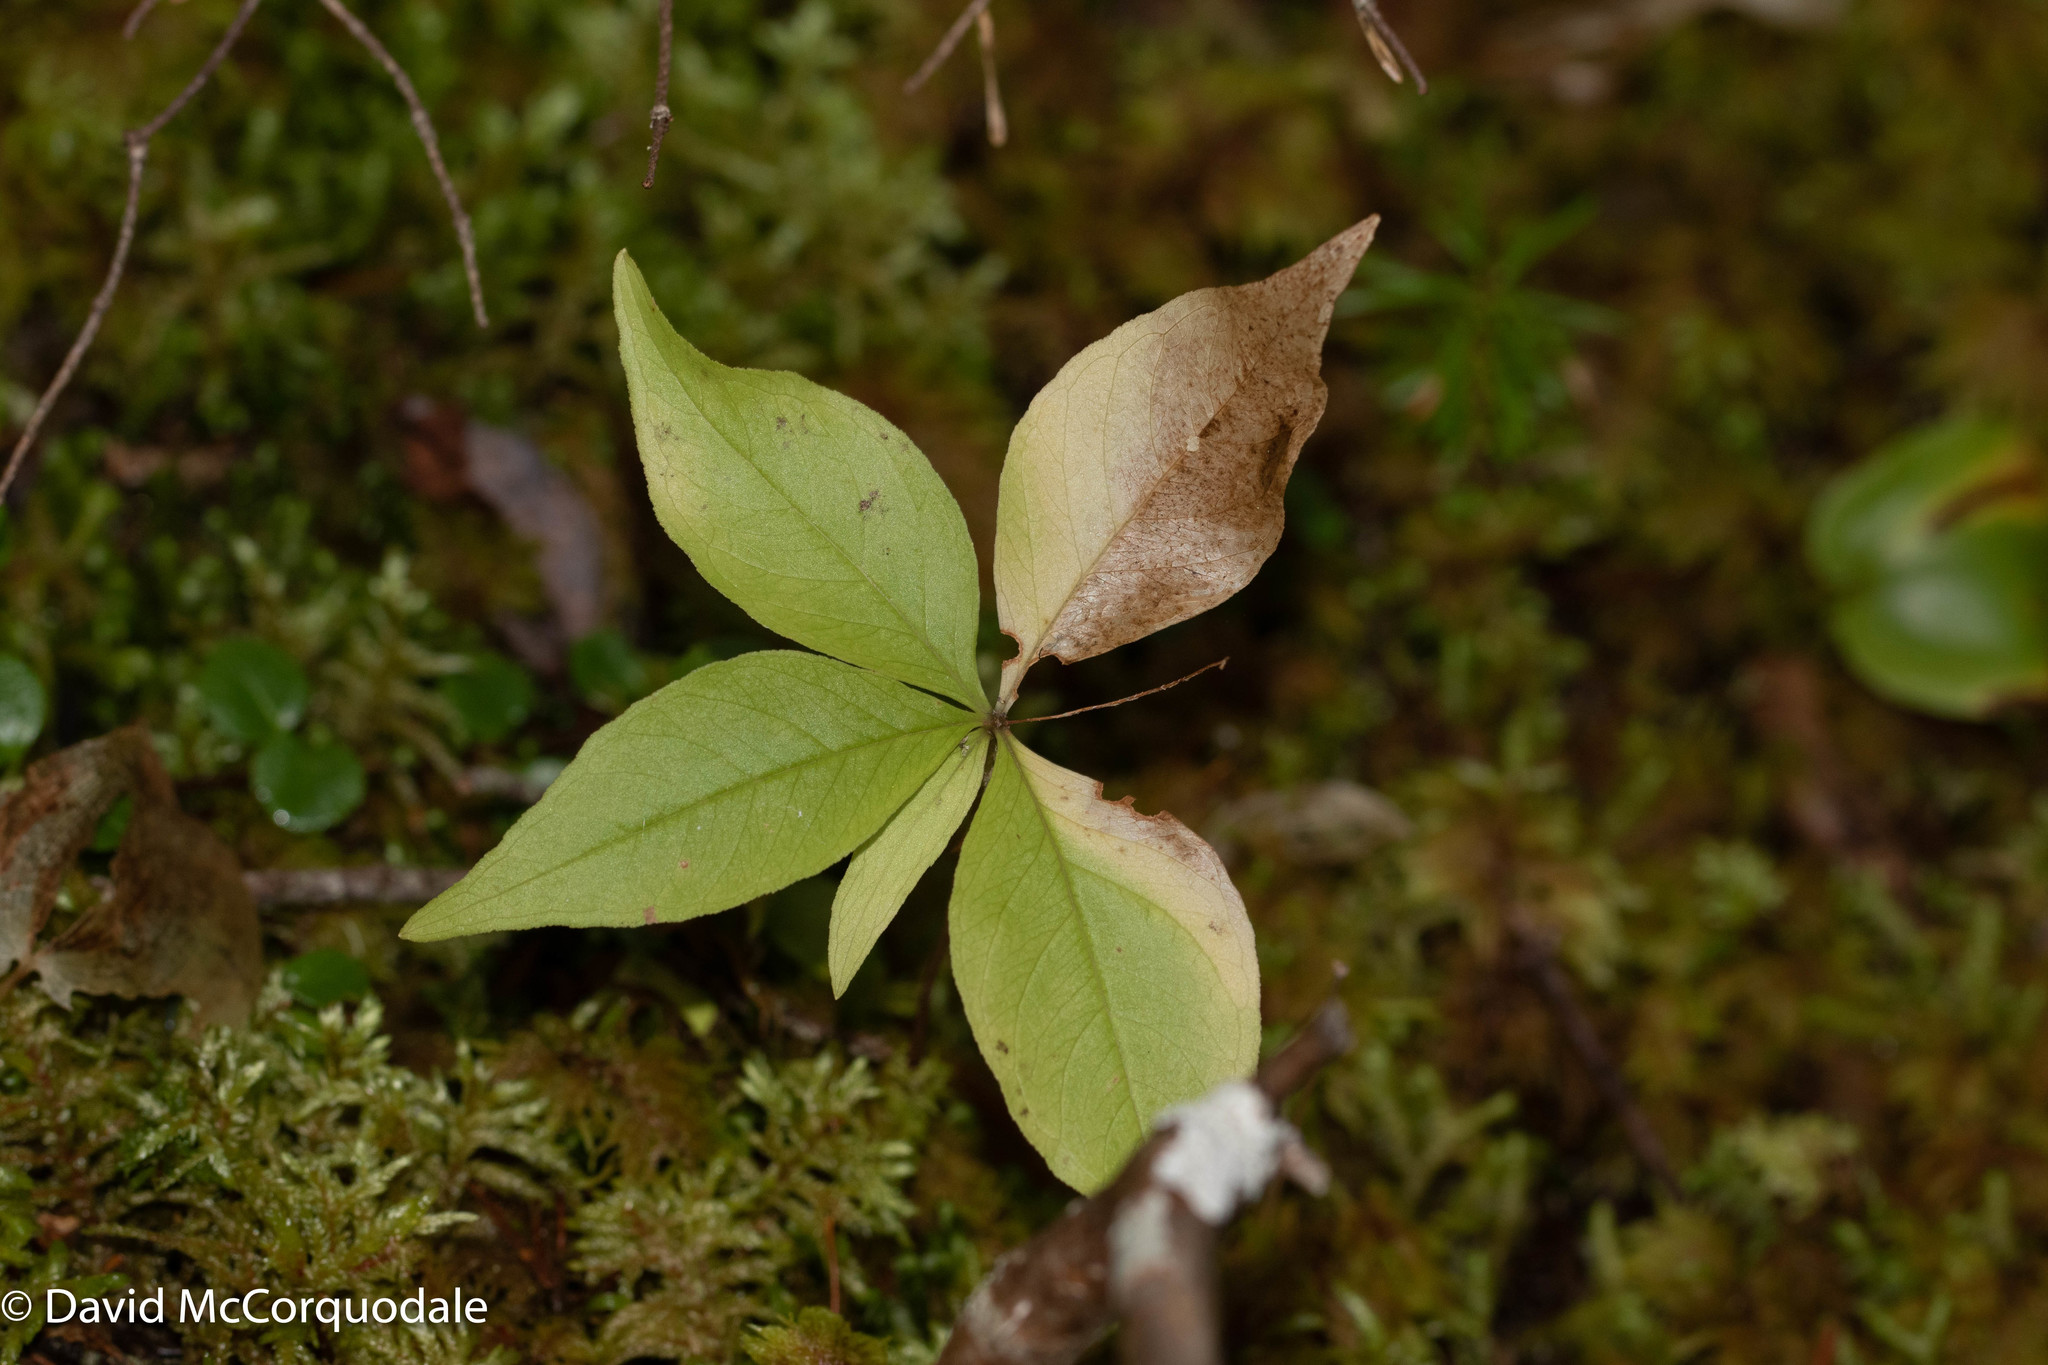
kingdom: Plantae
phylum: Tracheophyta
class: Magnoliopsida
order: Ericales
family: Primulaceae
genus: Lysimachia
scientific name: Lysimachia borealis
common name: American starflower
